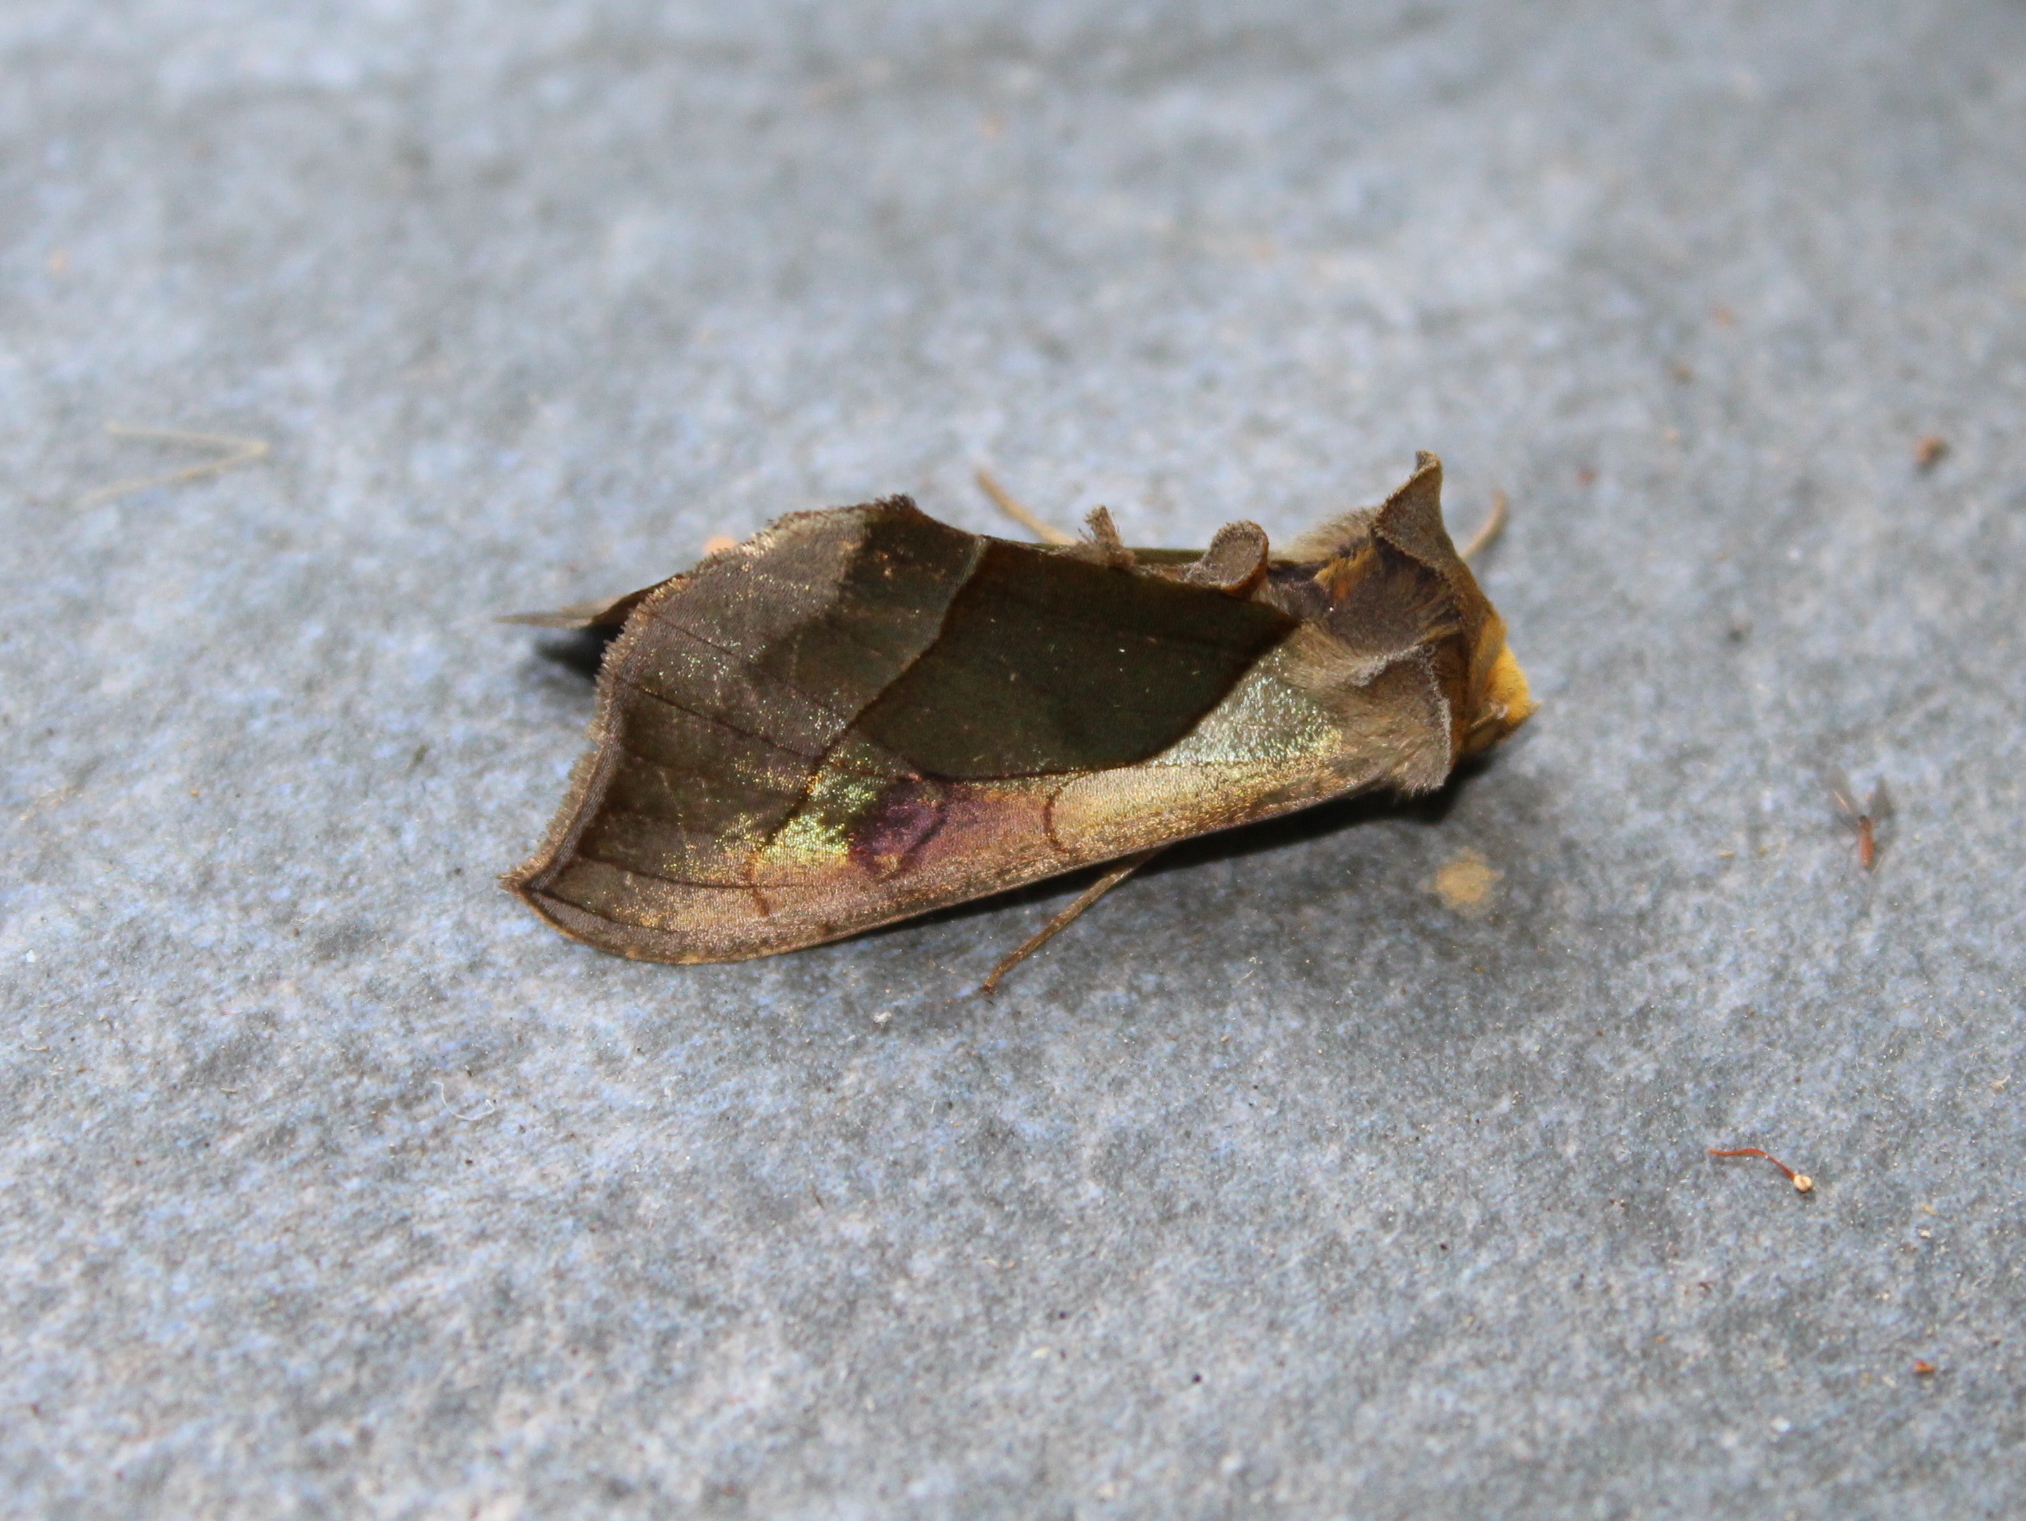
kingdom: Animalia
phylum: Arthropoda
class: Insecta
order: Lepidoptera
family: Noctuidae
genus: Diachrysia
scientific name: Diachrysia balluca
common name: Green-patched looper moth
